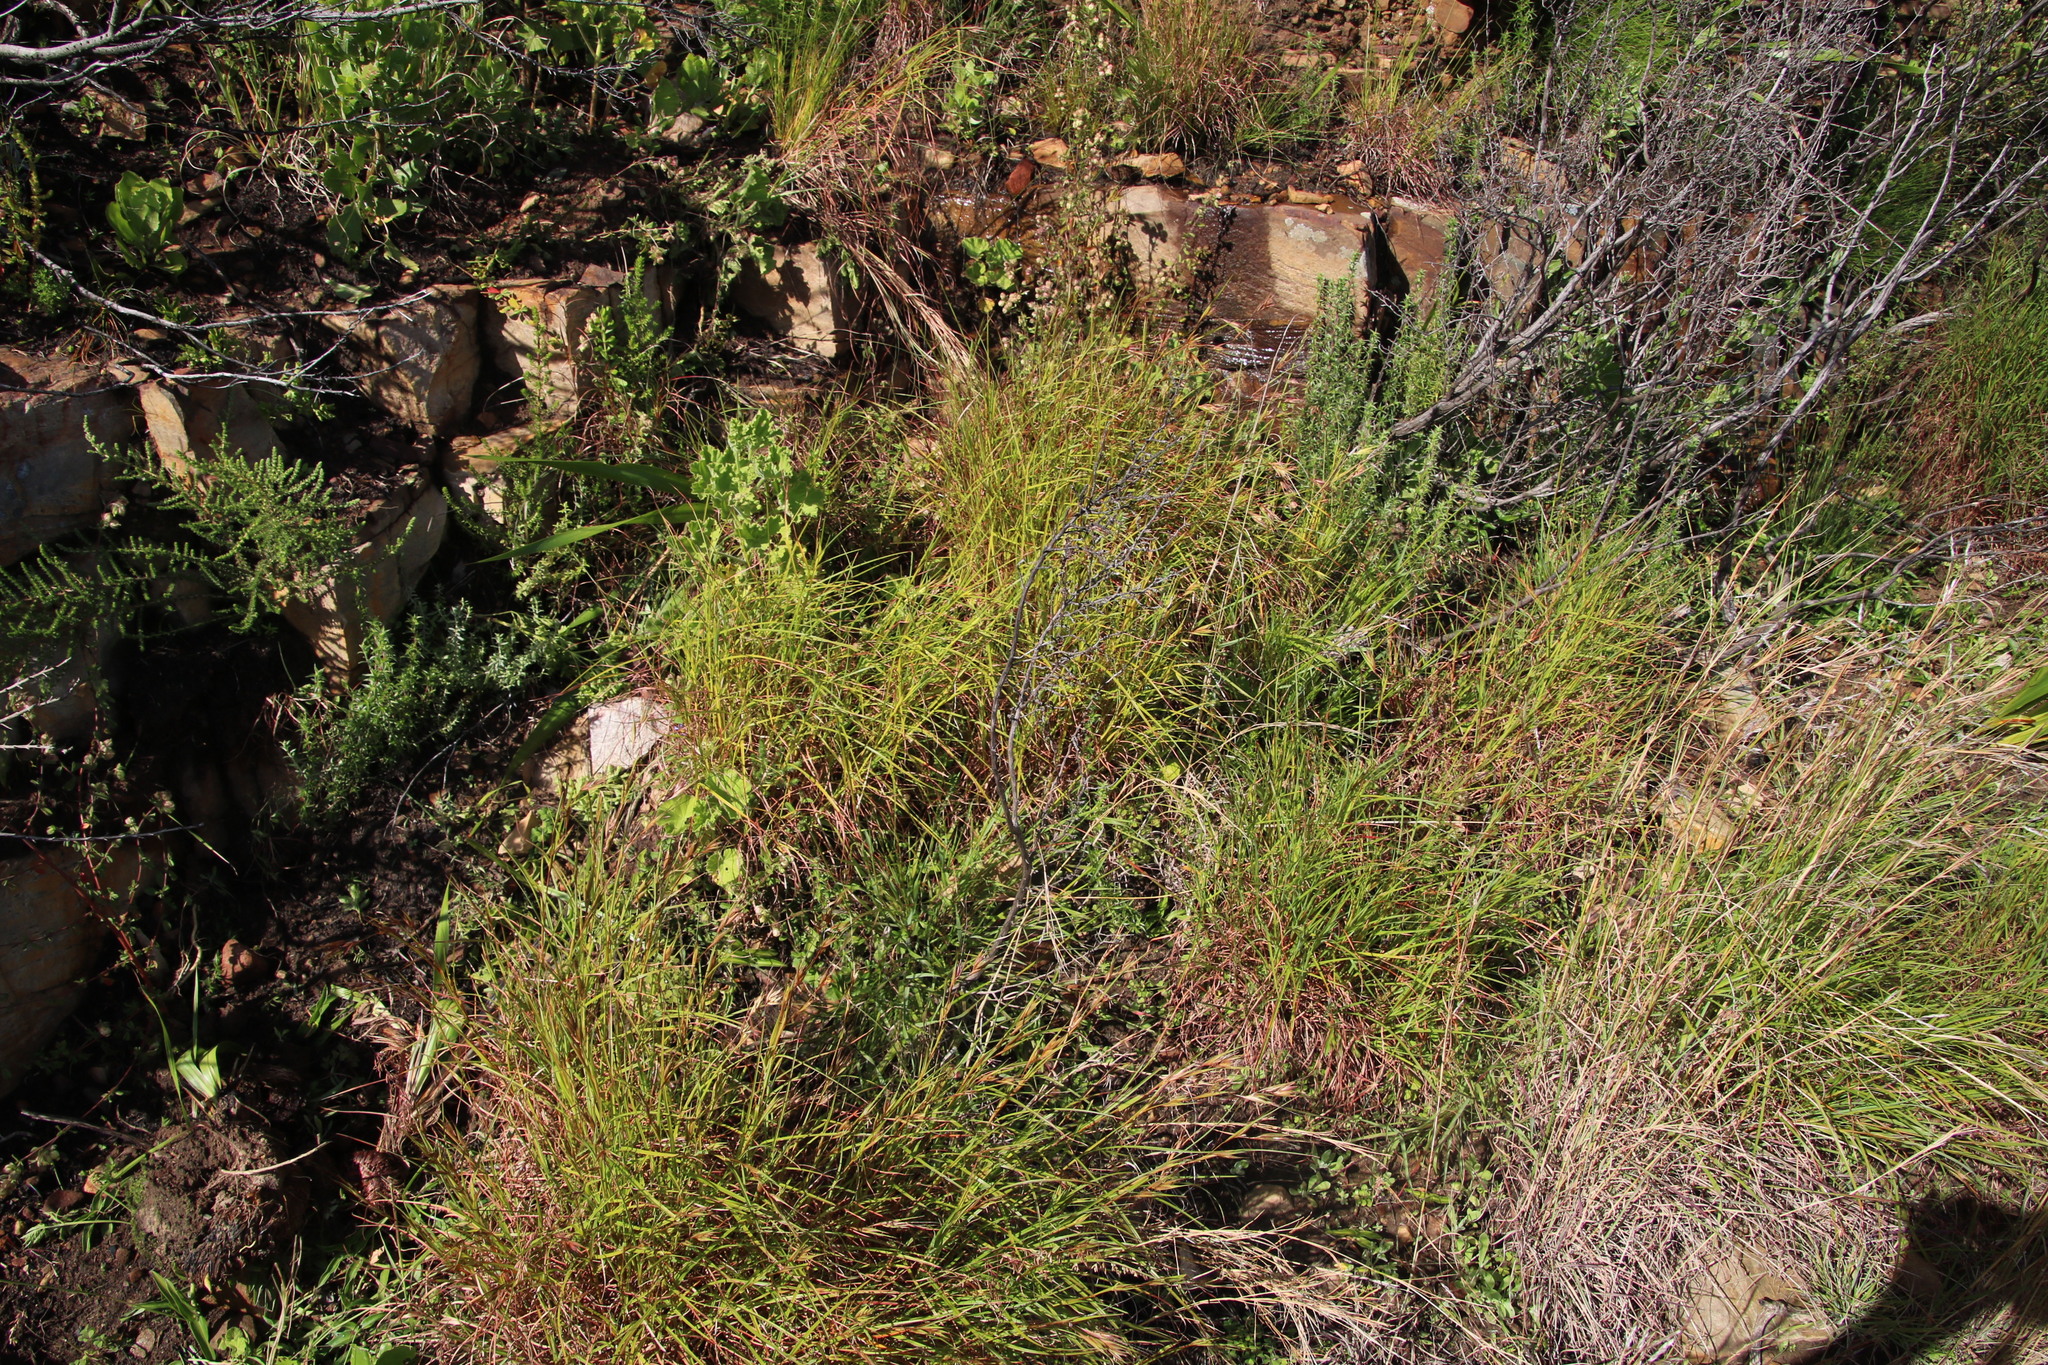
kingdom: Plantae
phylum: Tracheophyta
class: Liliopsida
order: Poales
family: Poaceae
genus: Themeda
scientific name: Themeda triandra
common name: Kangaroo grass
